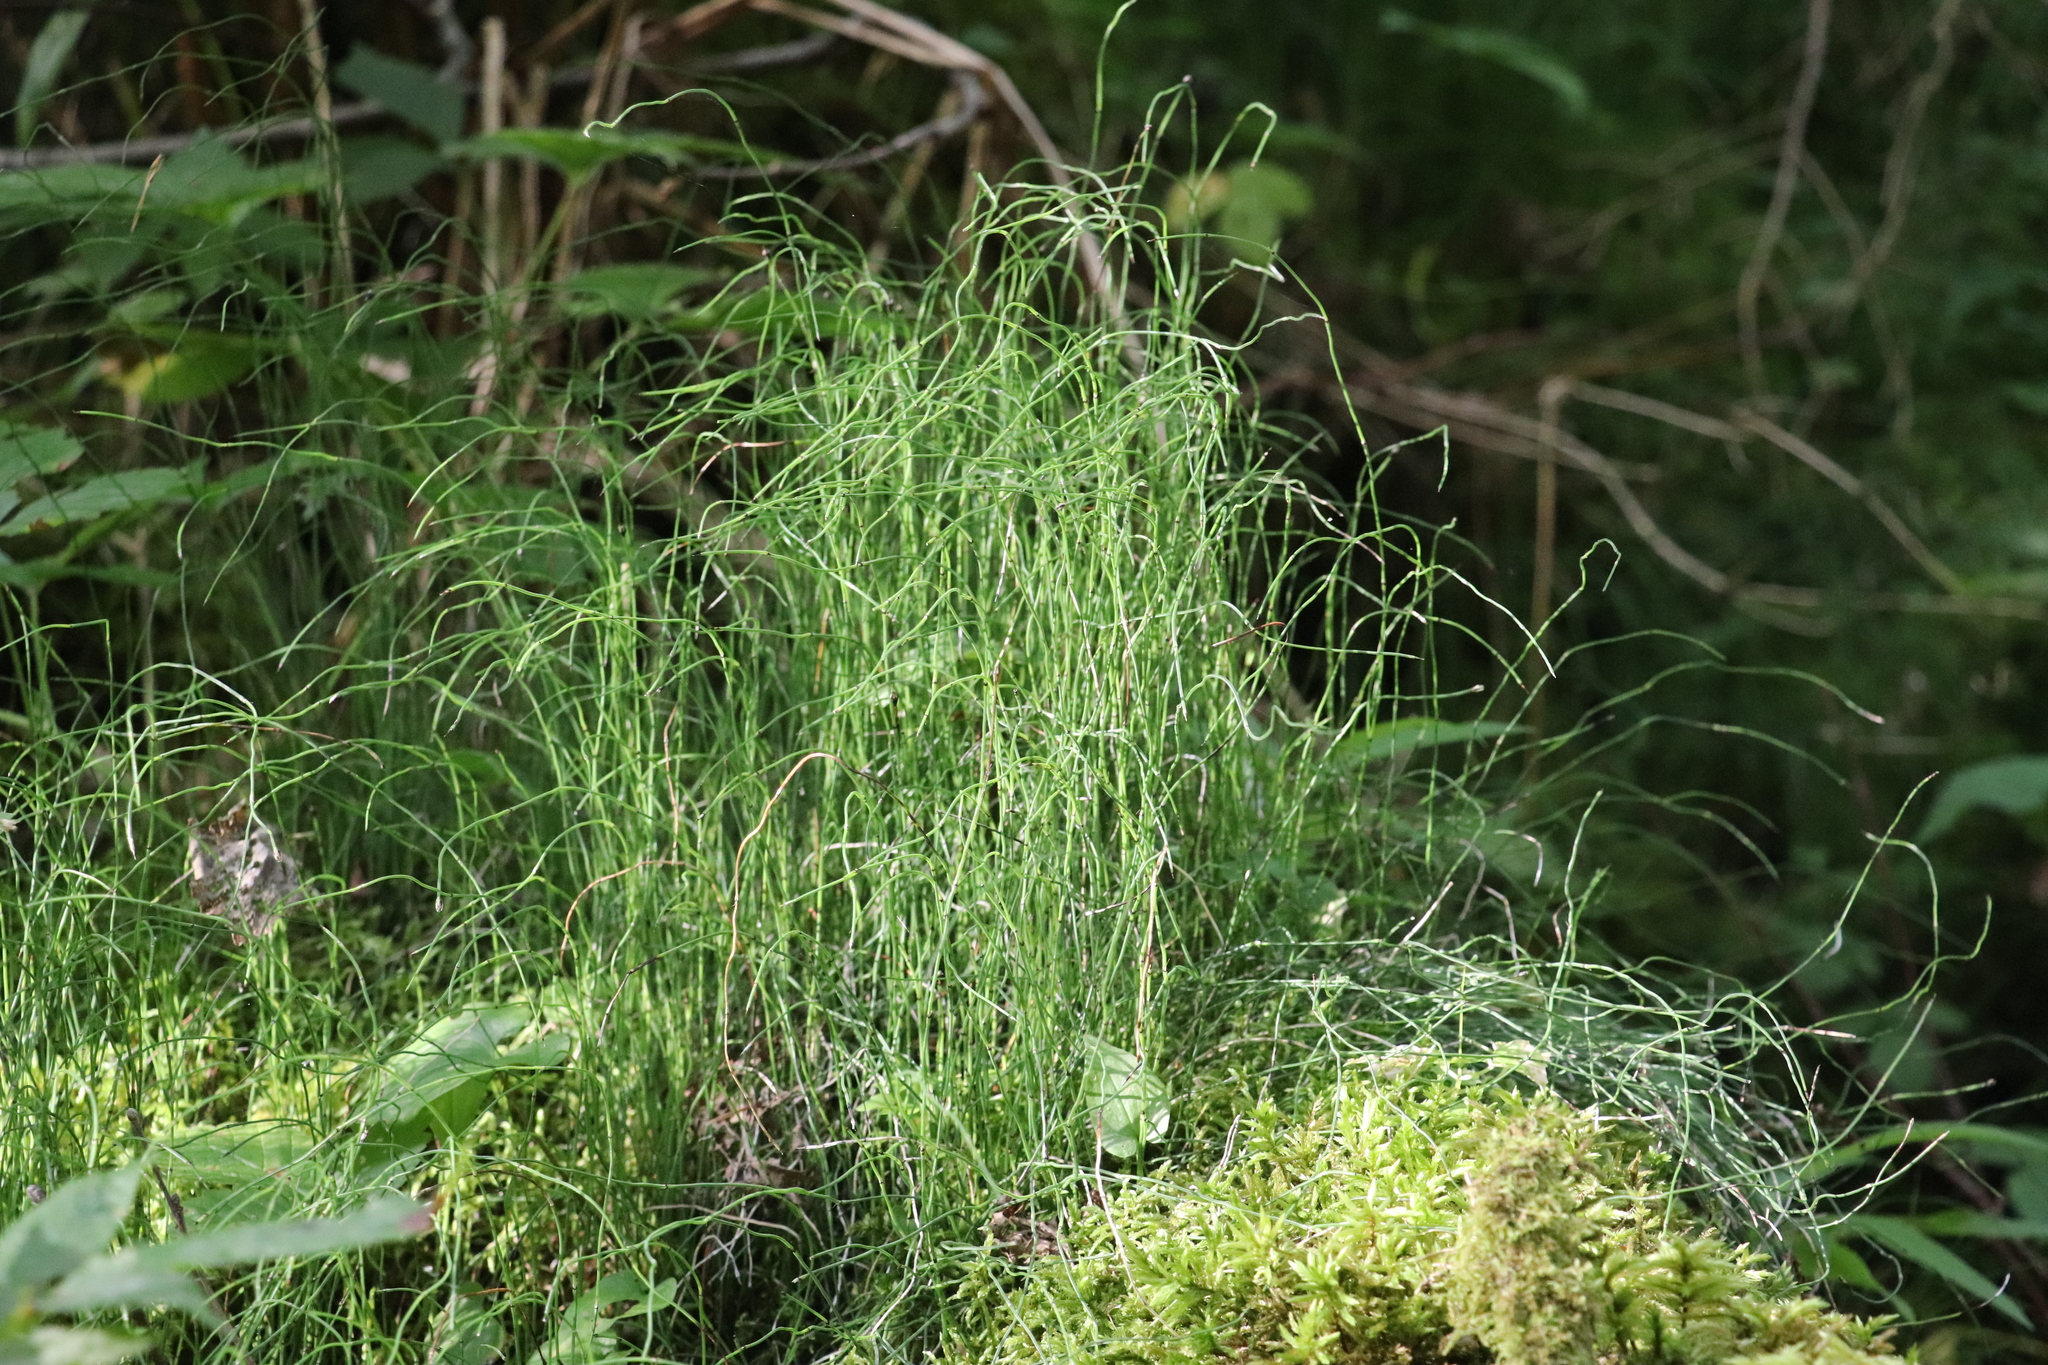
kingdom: Plantae
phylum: Tracheophyta
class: Polypodiopsida
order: Equisetales
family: Equisetaceae
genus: Equisetum
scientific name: Equisetum scirpoides
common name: Delicate horsetail
